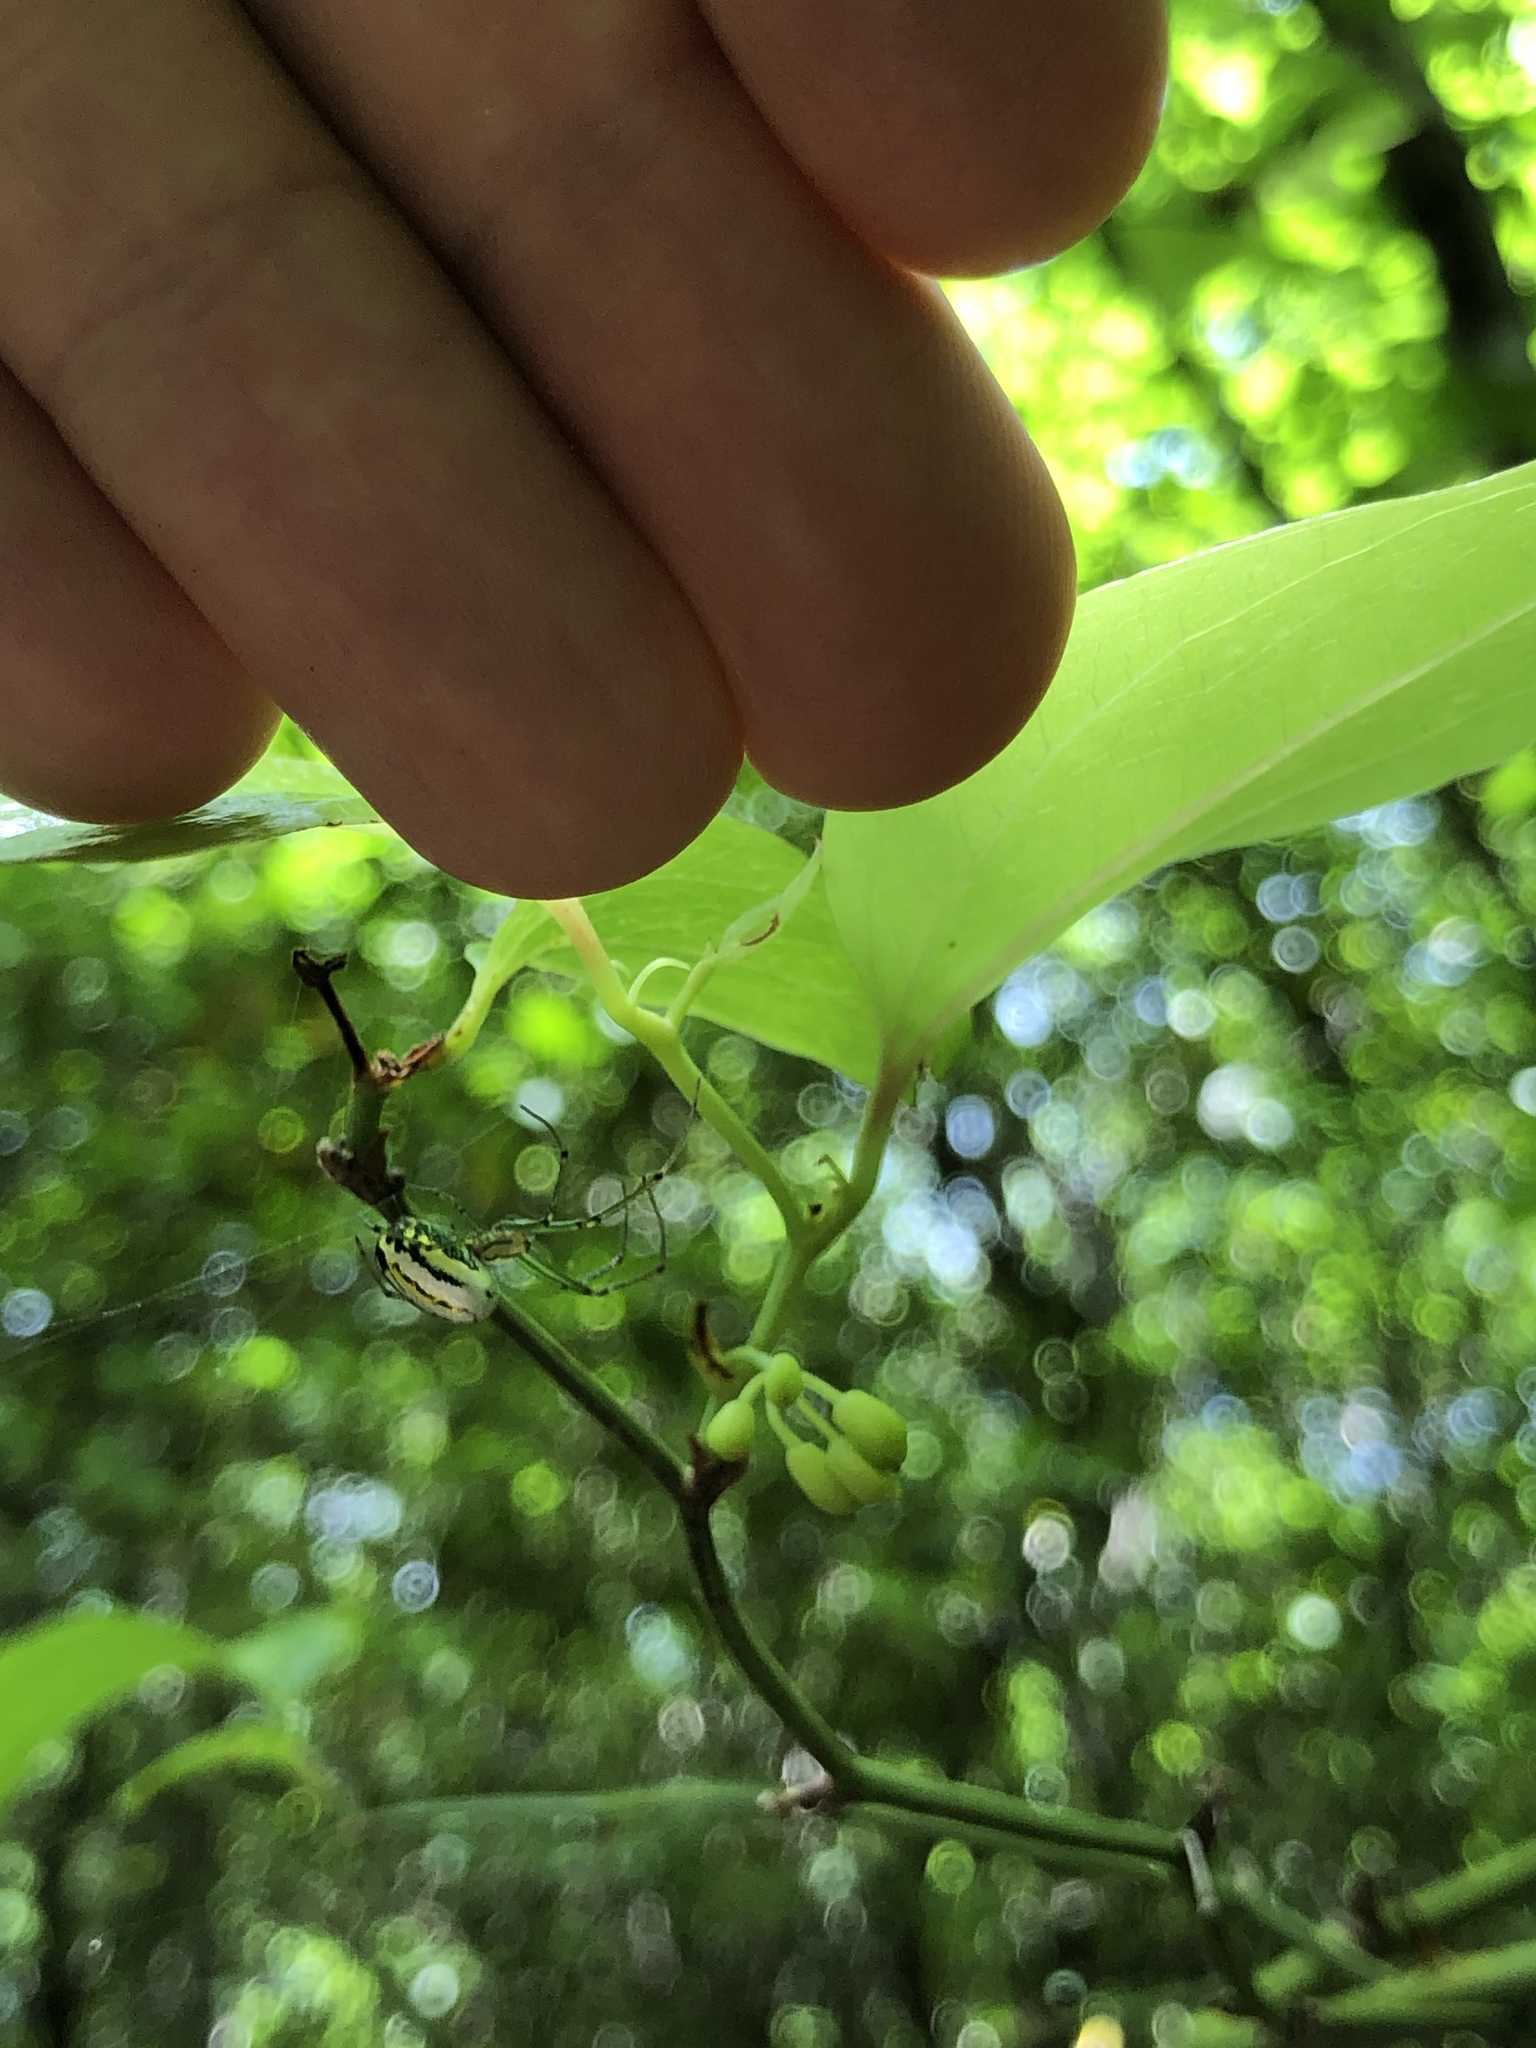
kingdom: Animalia
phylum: Arthropoda
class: Arachnida
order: Araneae
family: Tetragnathidae
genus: Leucauge
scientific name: Leucauge venusta
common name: Longjawed orb weavers
